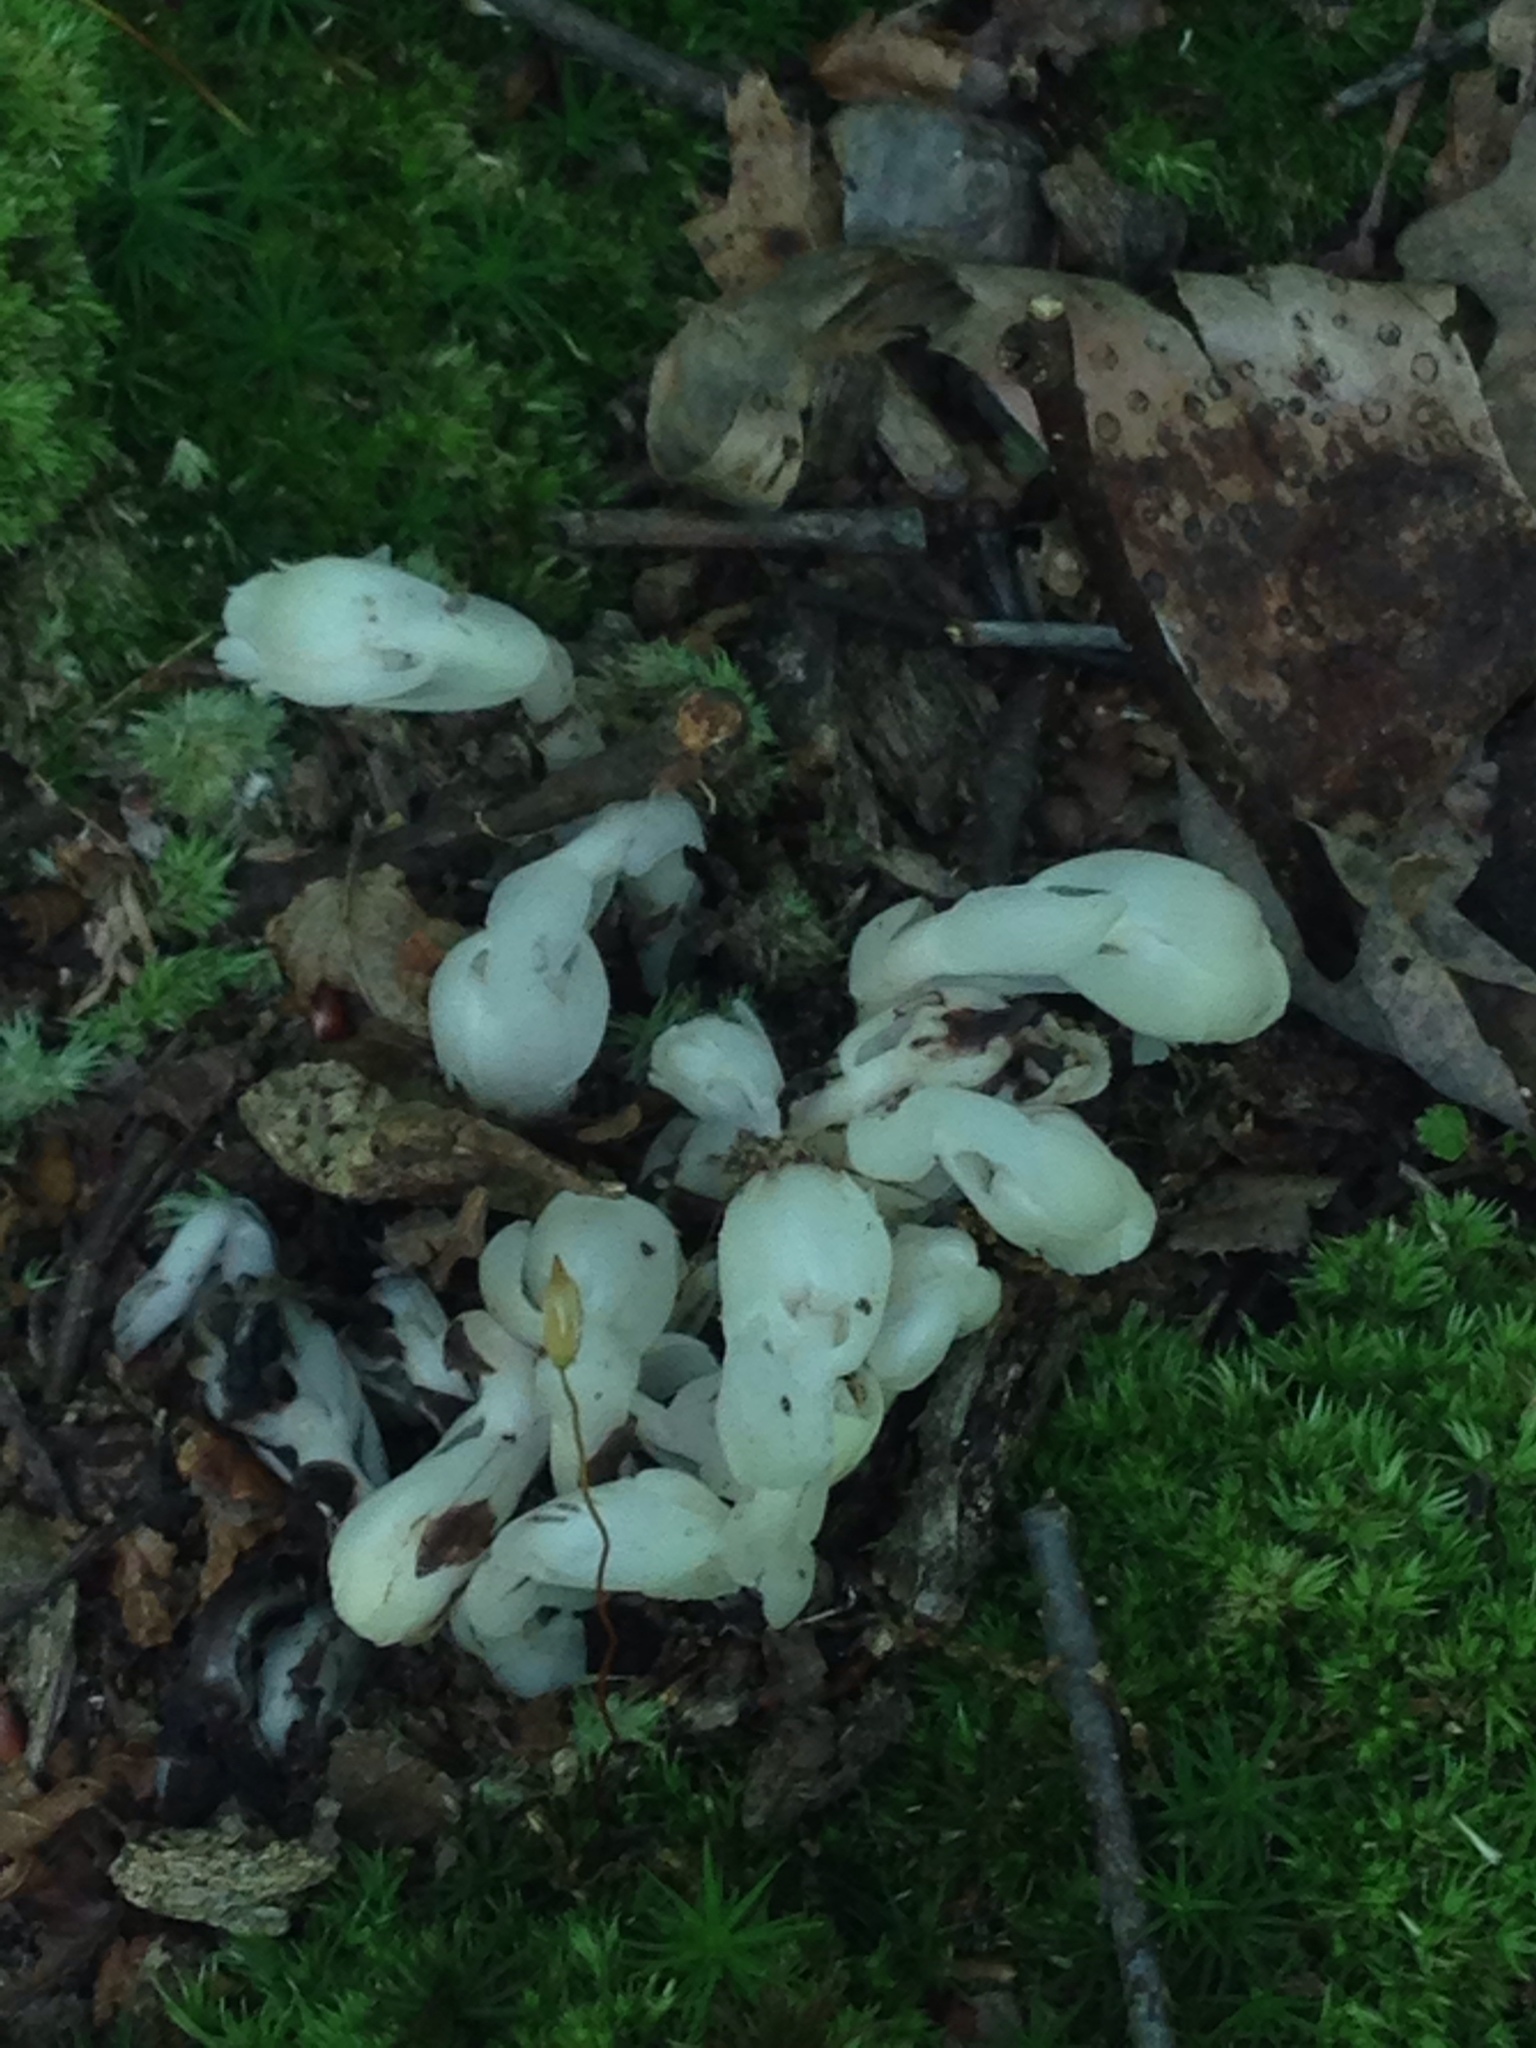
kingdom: Plantae
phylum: Tracheophyta
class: Magnoliopsida
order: Ericales
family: Ericaceae
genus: Monotropa
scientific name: Monotropa uniflora
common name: Convulsion root
